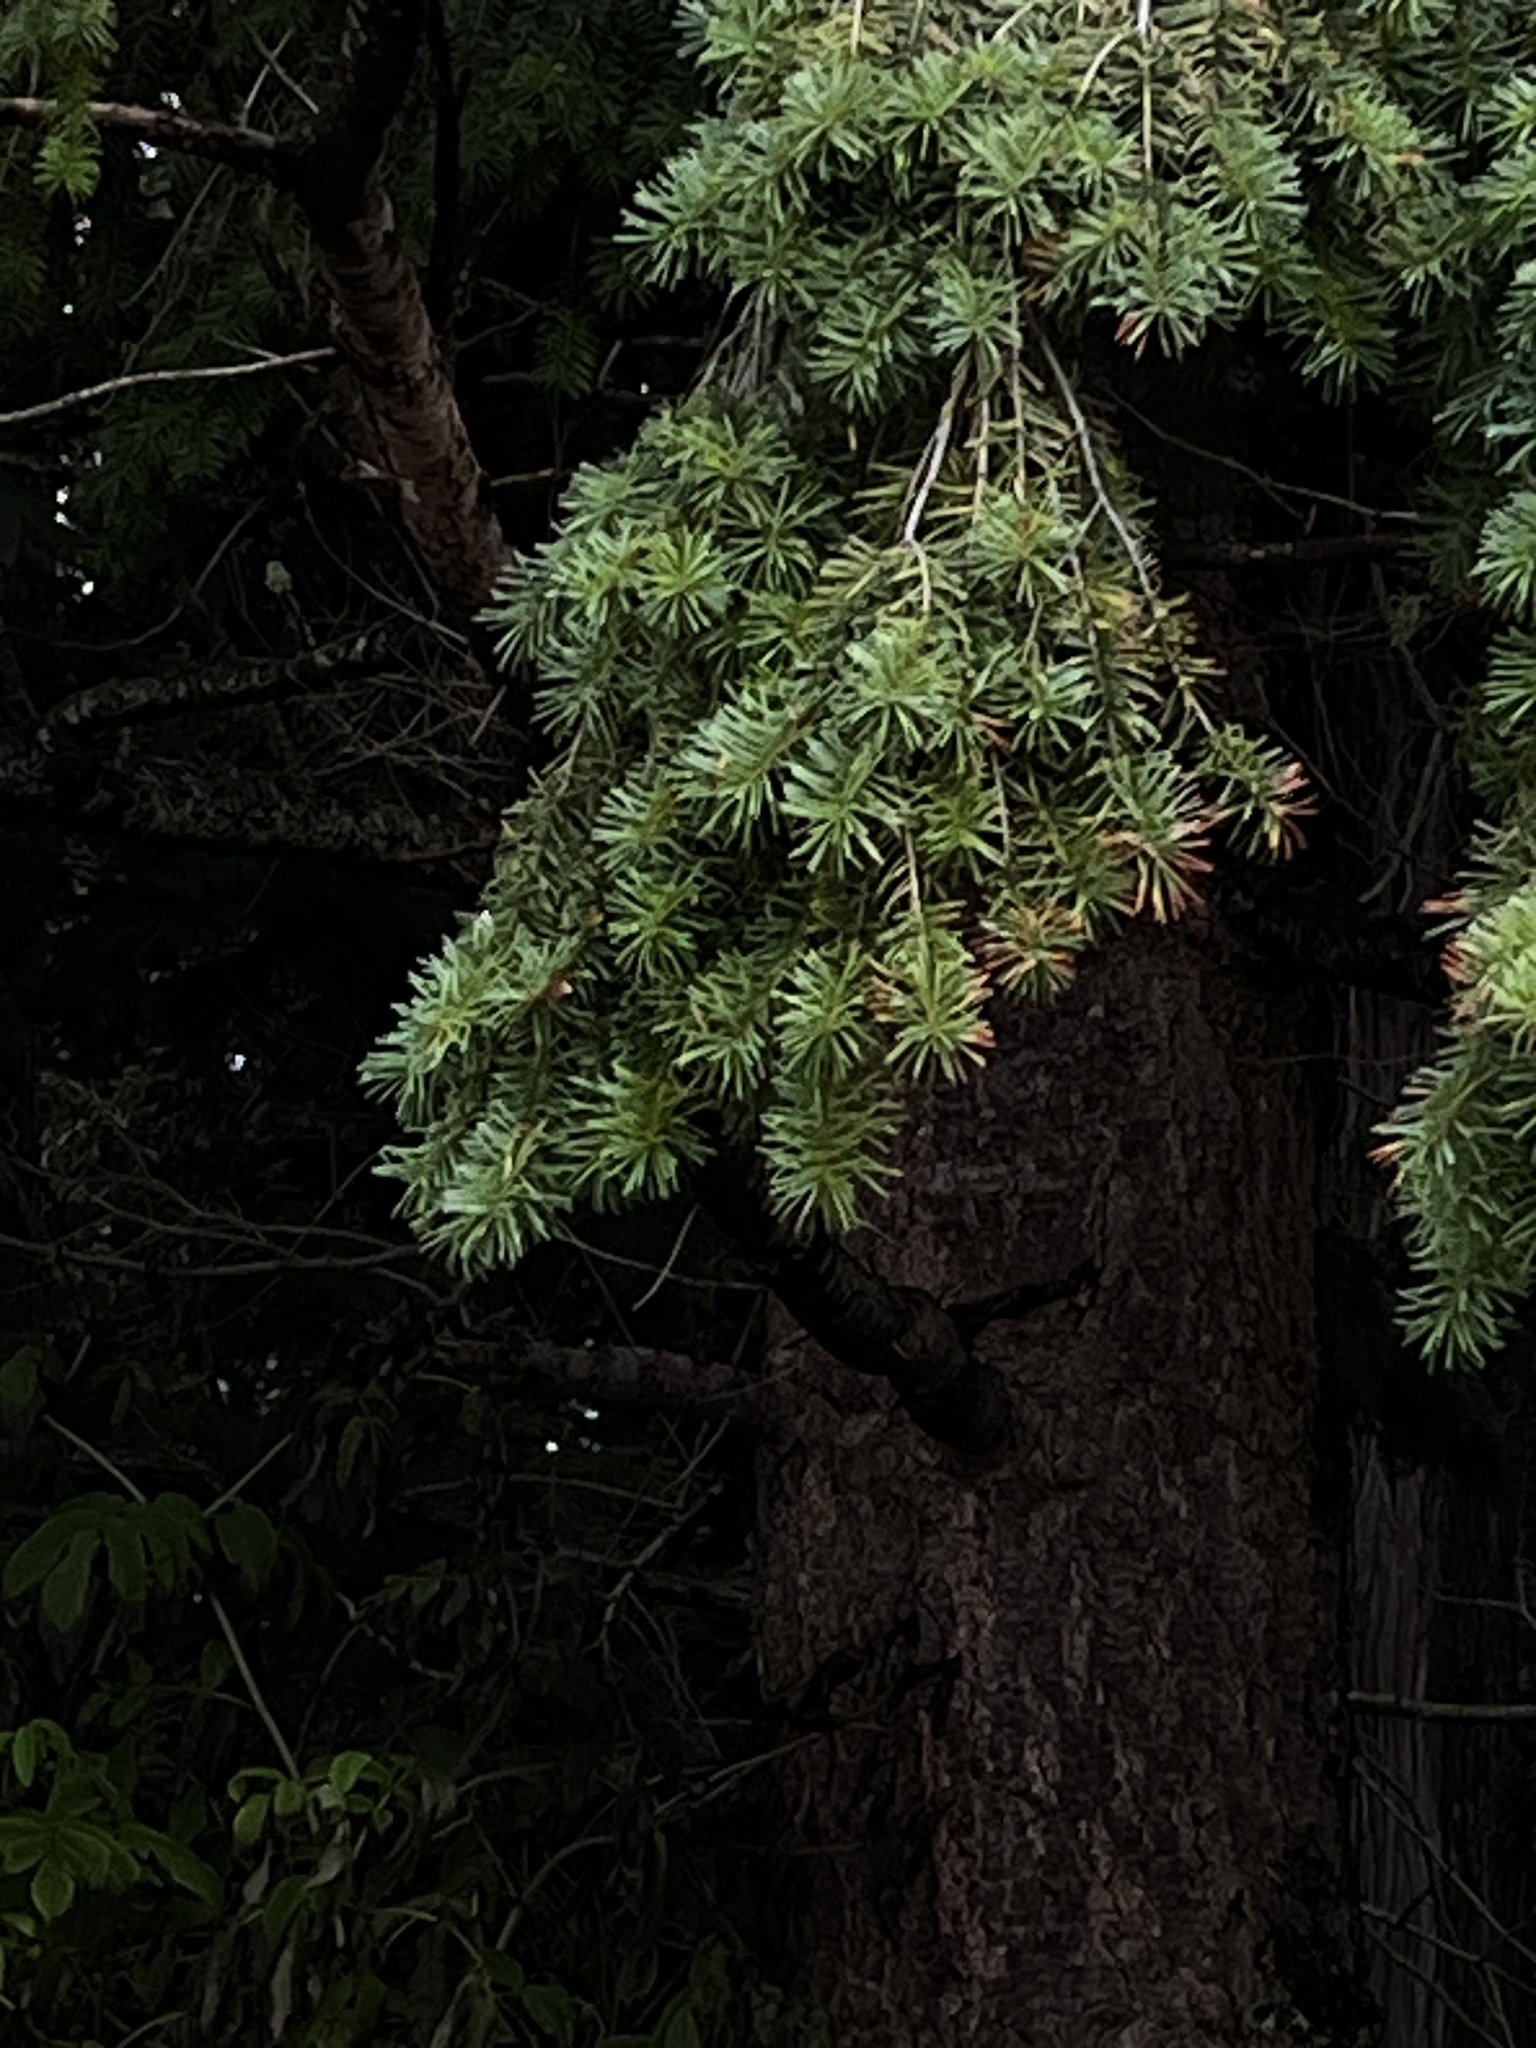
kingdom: Plantae
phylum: Tracheophyta
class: Pinopsida
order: Pinales
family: Pinaceae
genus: Pseudotsuga
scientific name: Pseudotsuga menziesii
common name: Douglas fir
